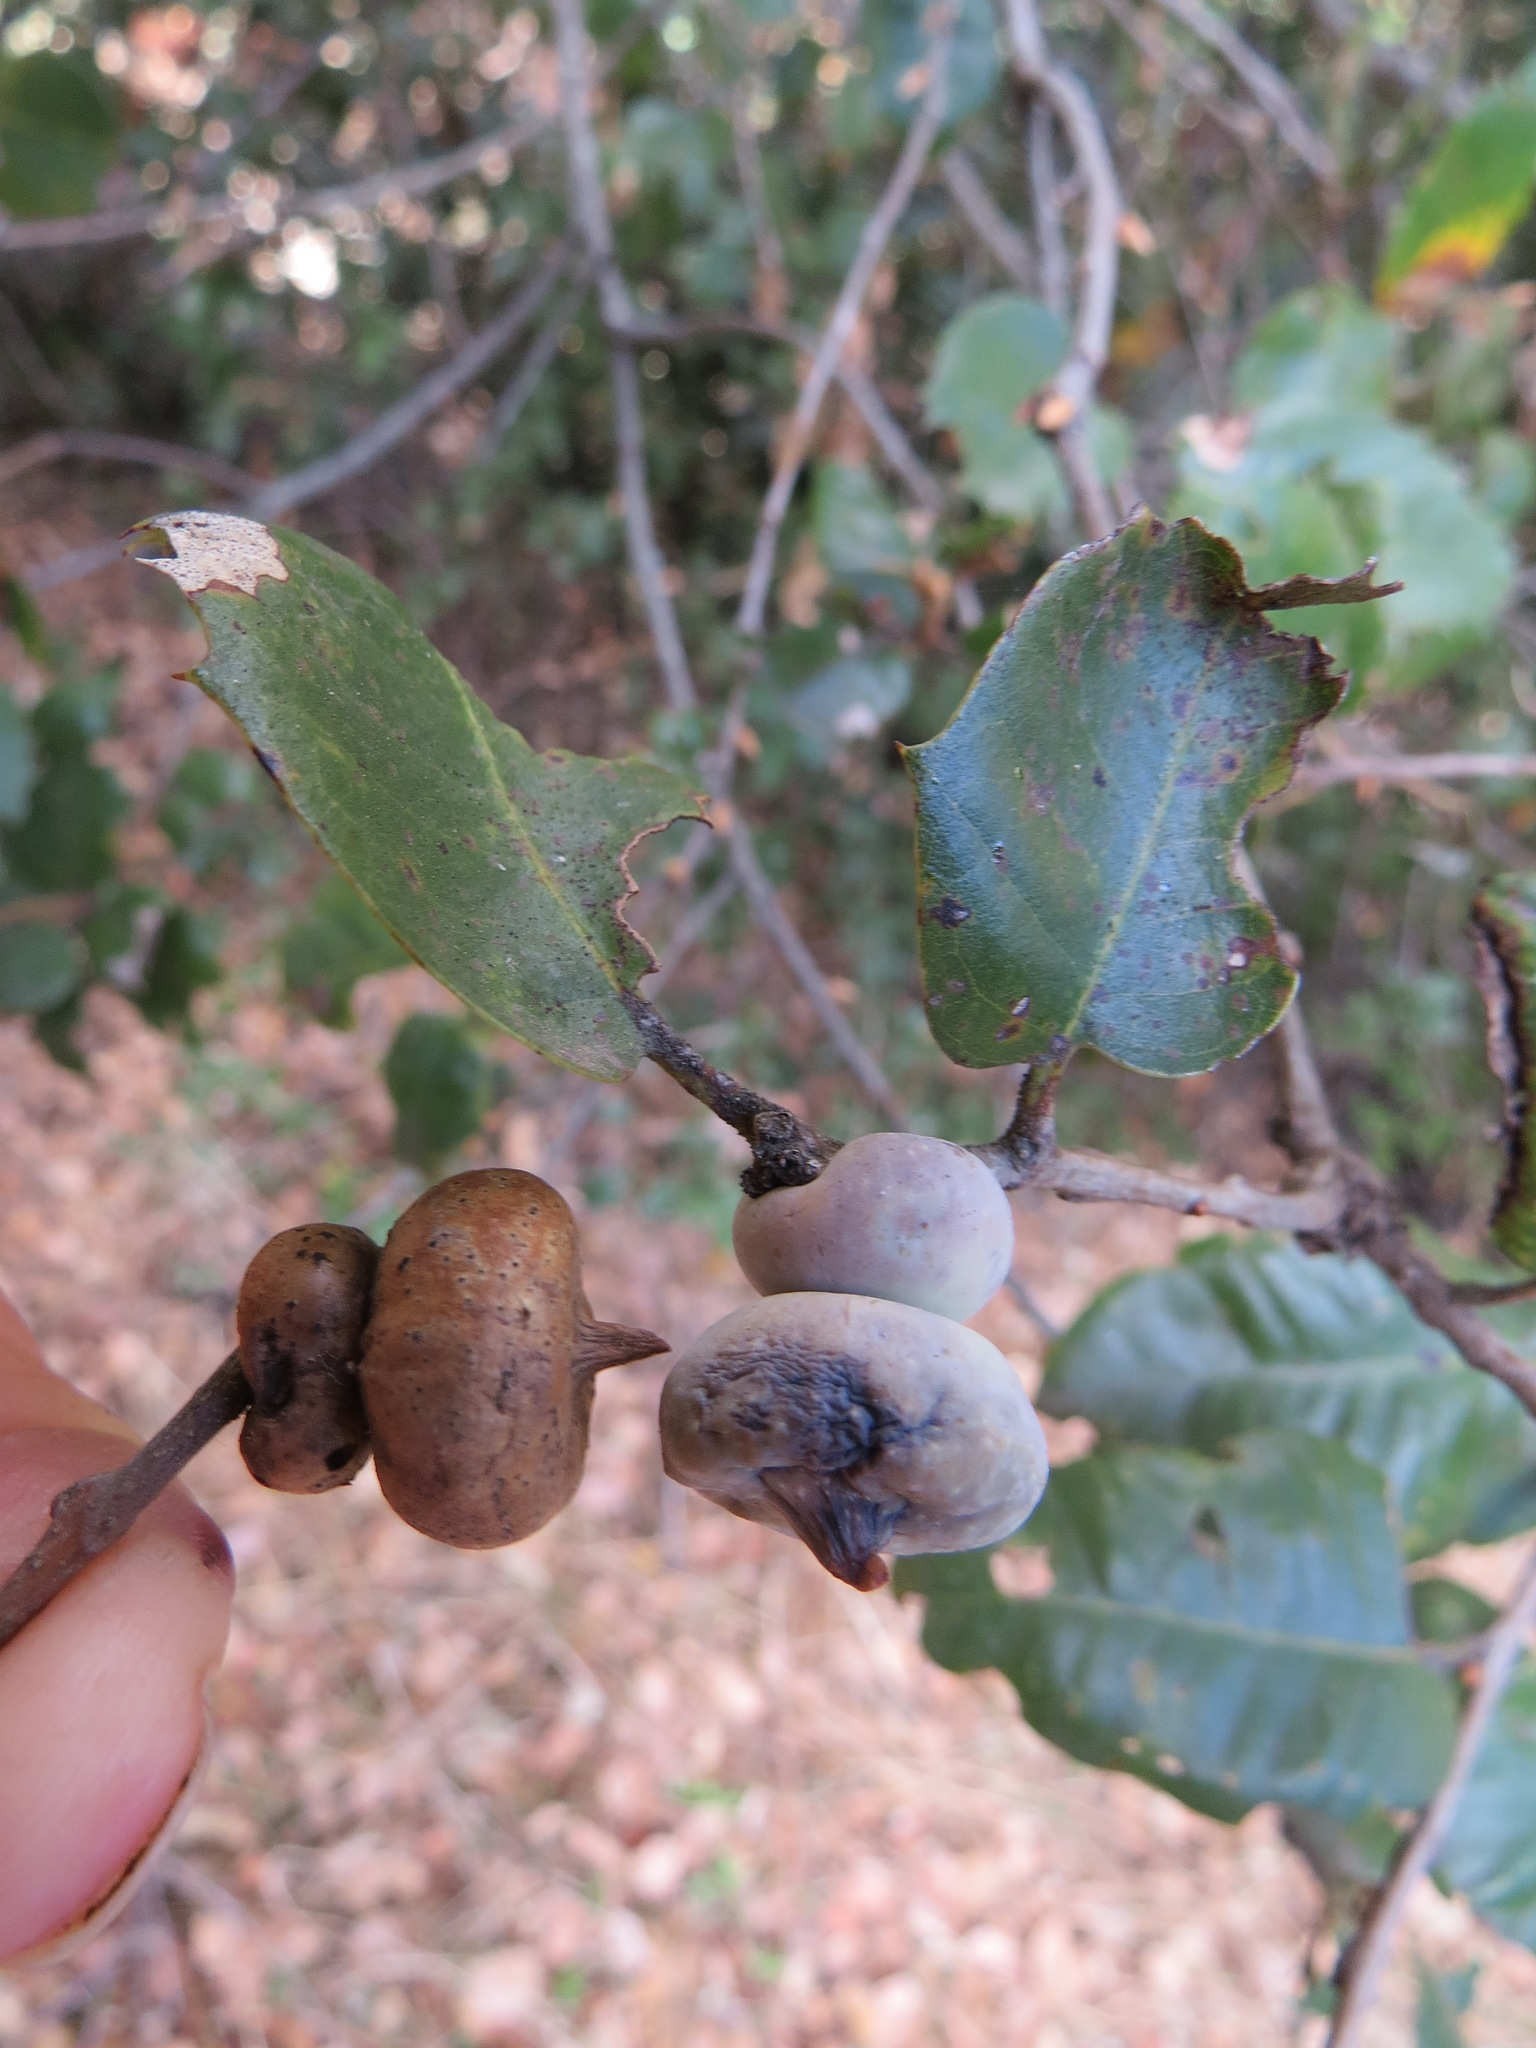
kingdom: Animalia
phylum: Arthropoda
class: Insecta
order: Hymenoptera
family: Cynipidae
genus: Heteroecus
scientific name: Heteroecus
